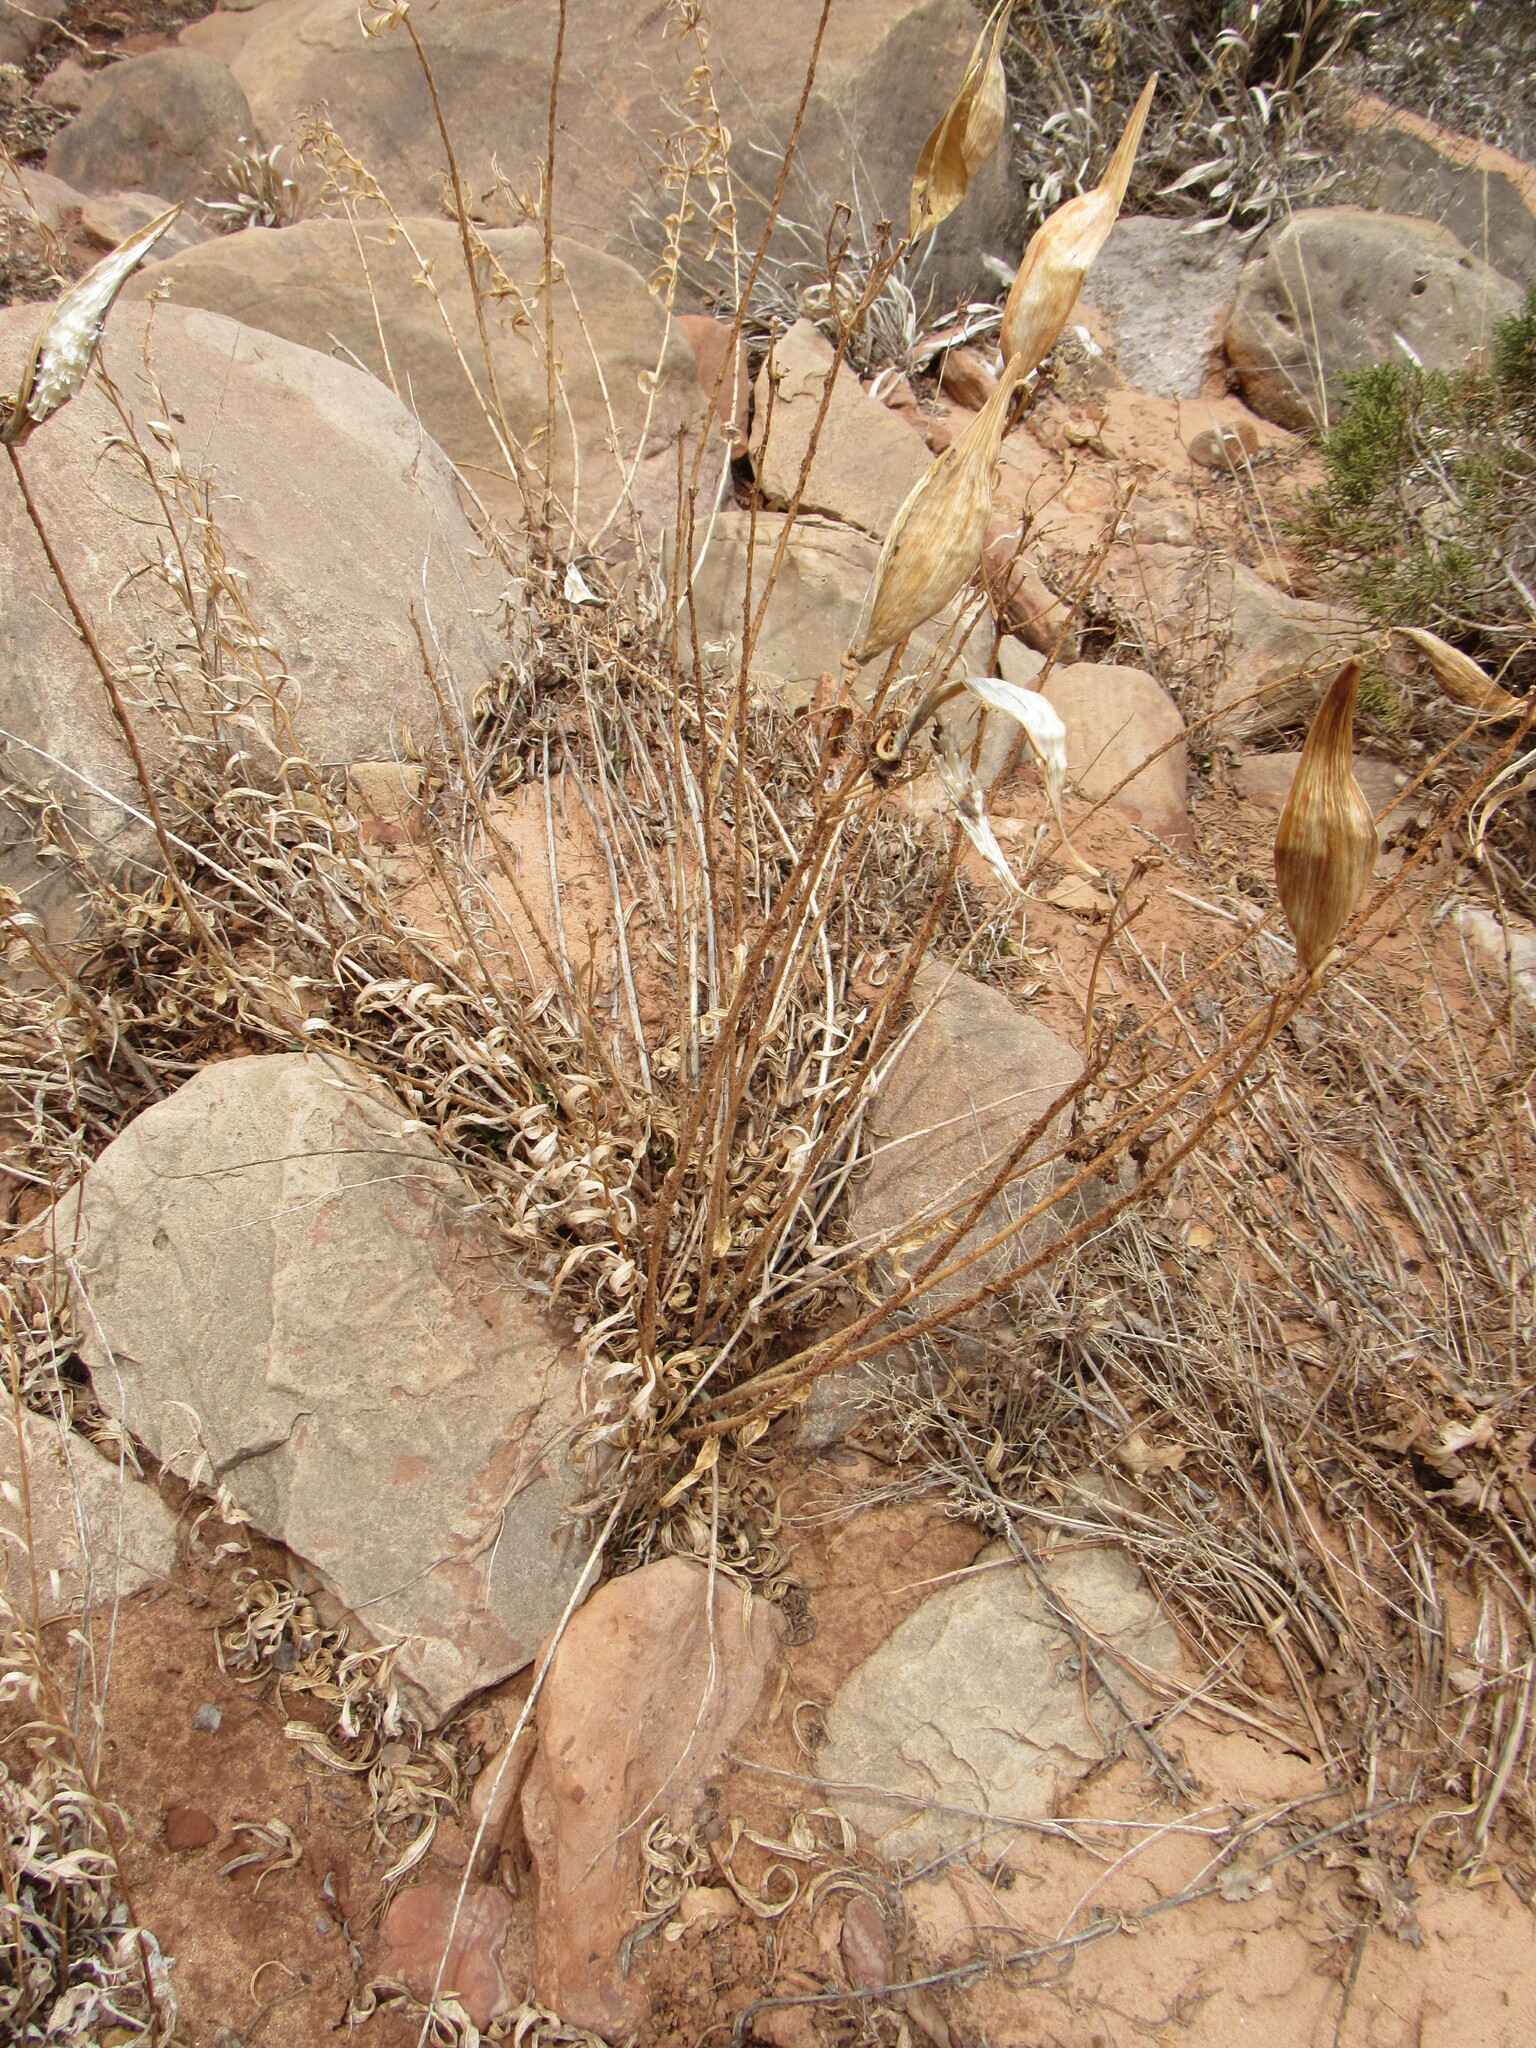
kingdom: Plantae
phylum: Tracheophyta
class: Magnoliopsida
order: Gentianales
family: Apocynaceae
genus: Asclepias
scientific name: Asclepias tuberosa
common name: Butterfly milkweed
